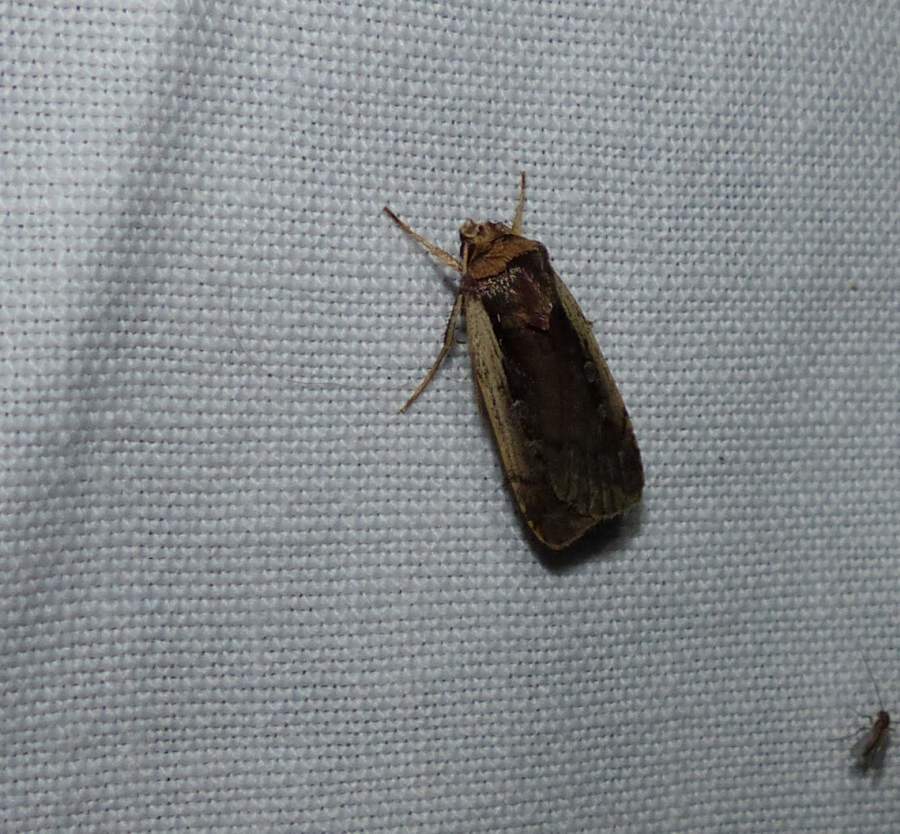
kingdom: Animalia
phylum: Arthropoda
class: Insecta
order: Lepidoptera
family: Noctuidae
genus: Ochropleura
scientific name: Ochropleura implecta
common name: Flame-shouldered dart
